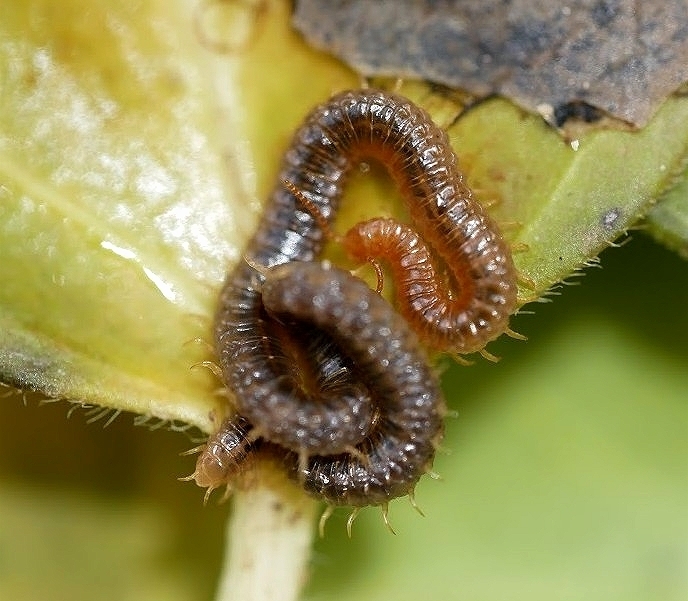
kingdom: Animalia
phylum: Arthropoda
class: Chilopoda
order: Geophilomorpha
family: Dignathodontidae
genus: Henia
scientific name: Henia vesuviana
